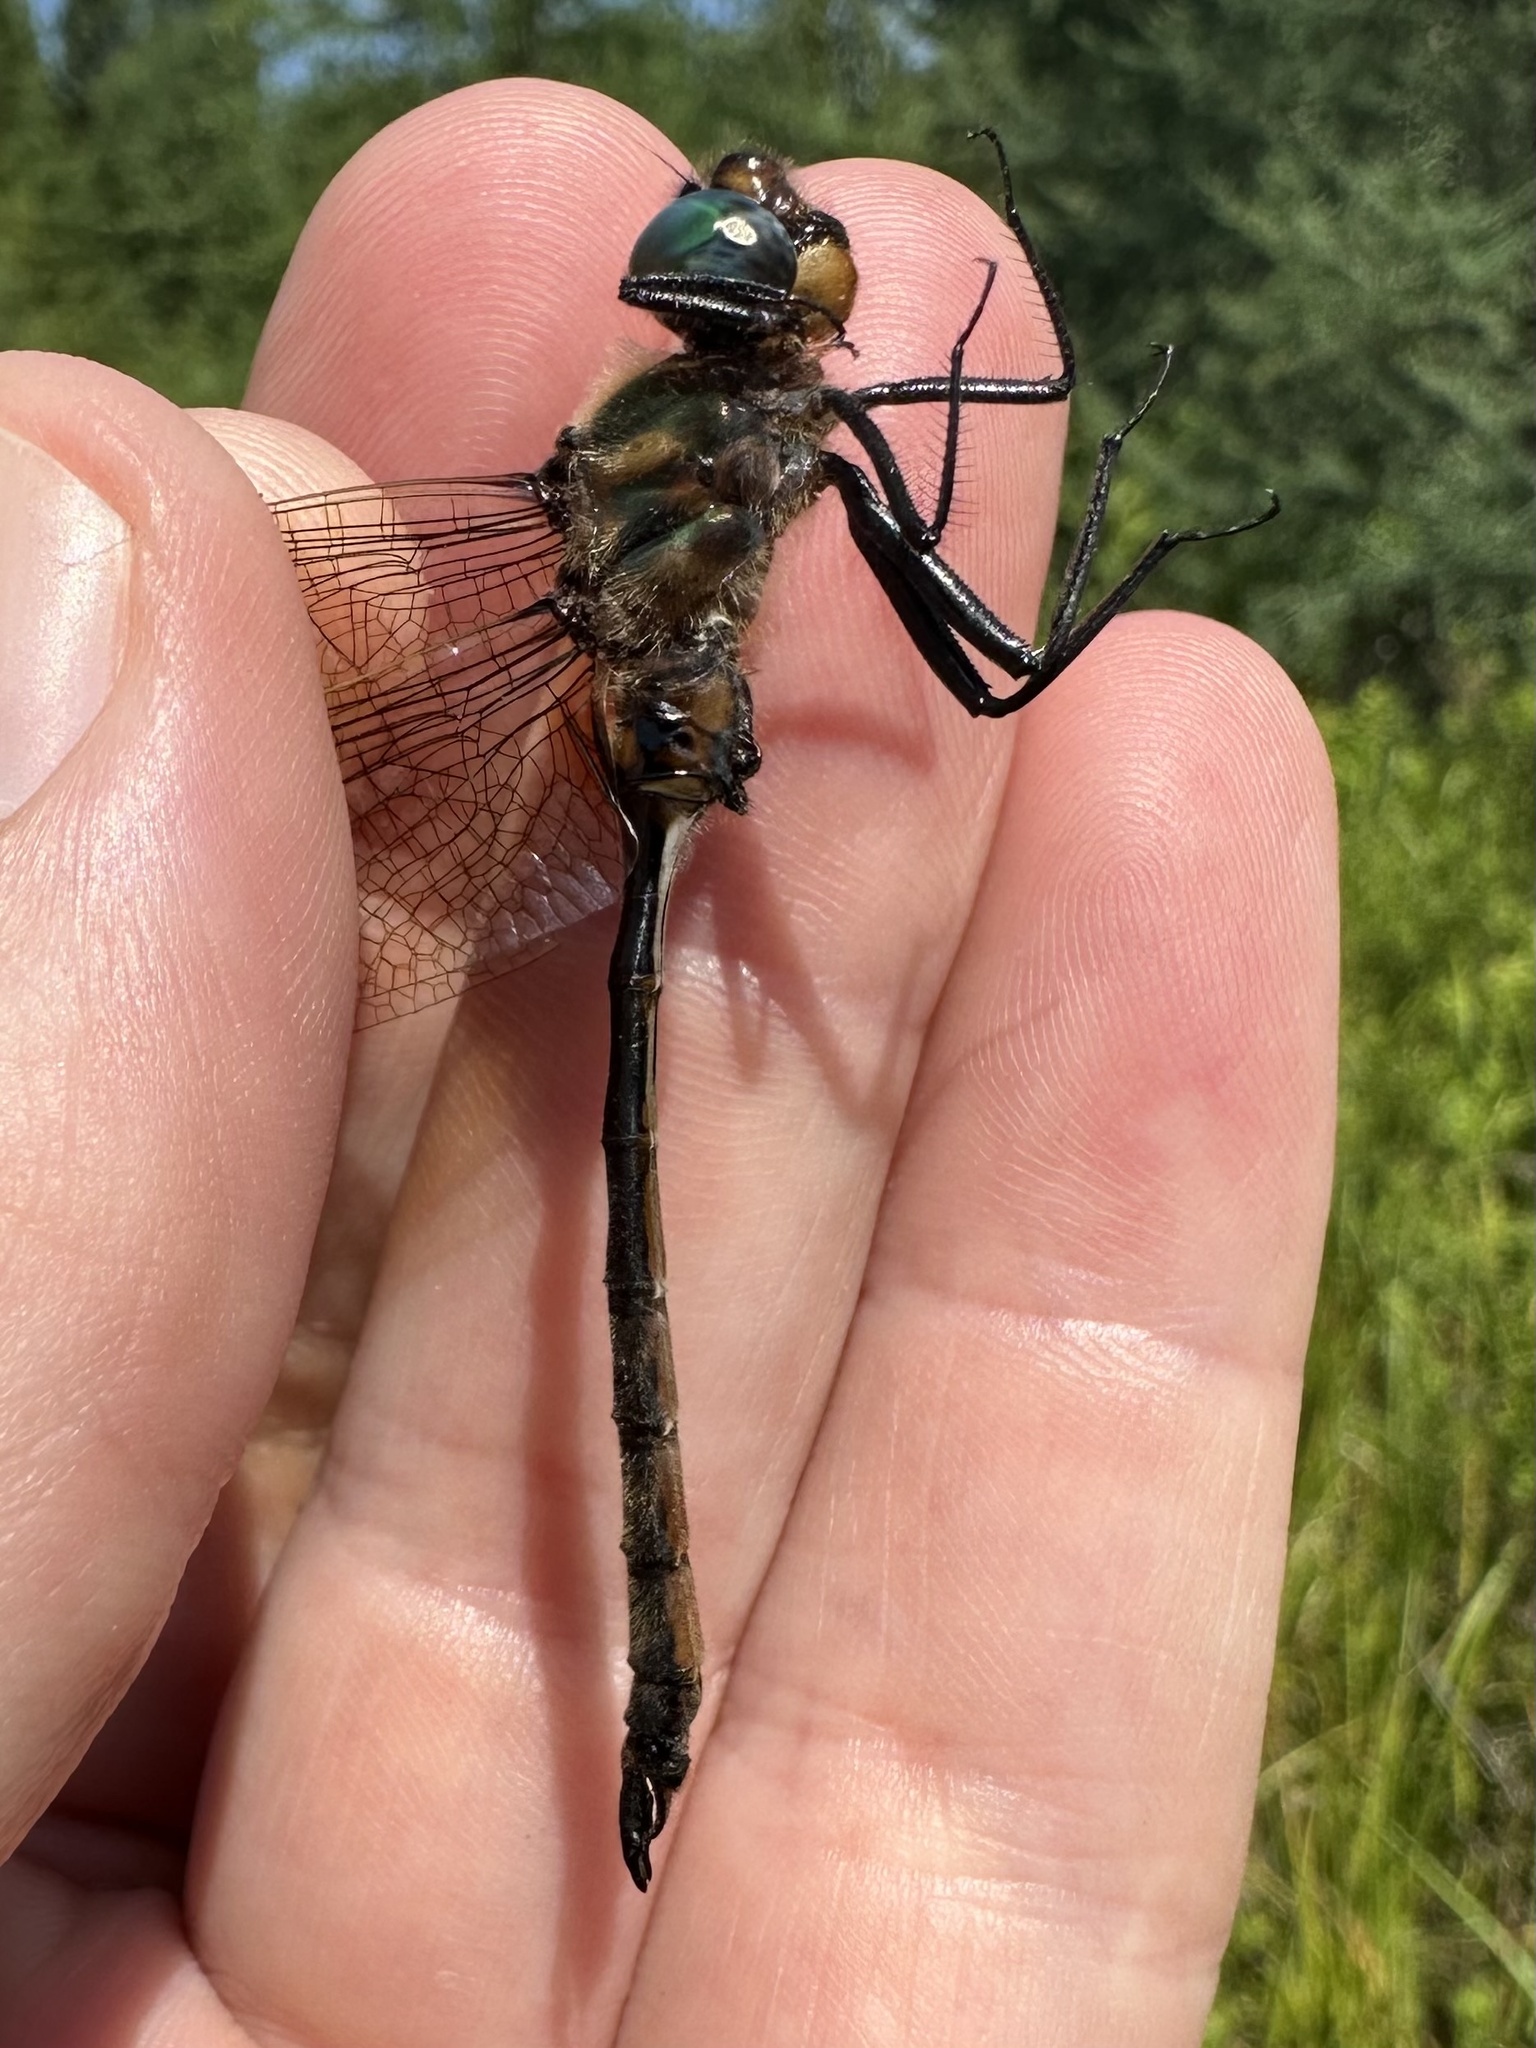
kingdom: Animalia
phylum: Arthropoda
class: Insecta
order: Odonata
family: Corduliidae
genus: Somatochlora
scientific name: Somatochlora kennedyi
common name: Kennedy's emerald
